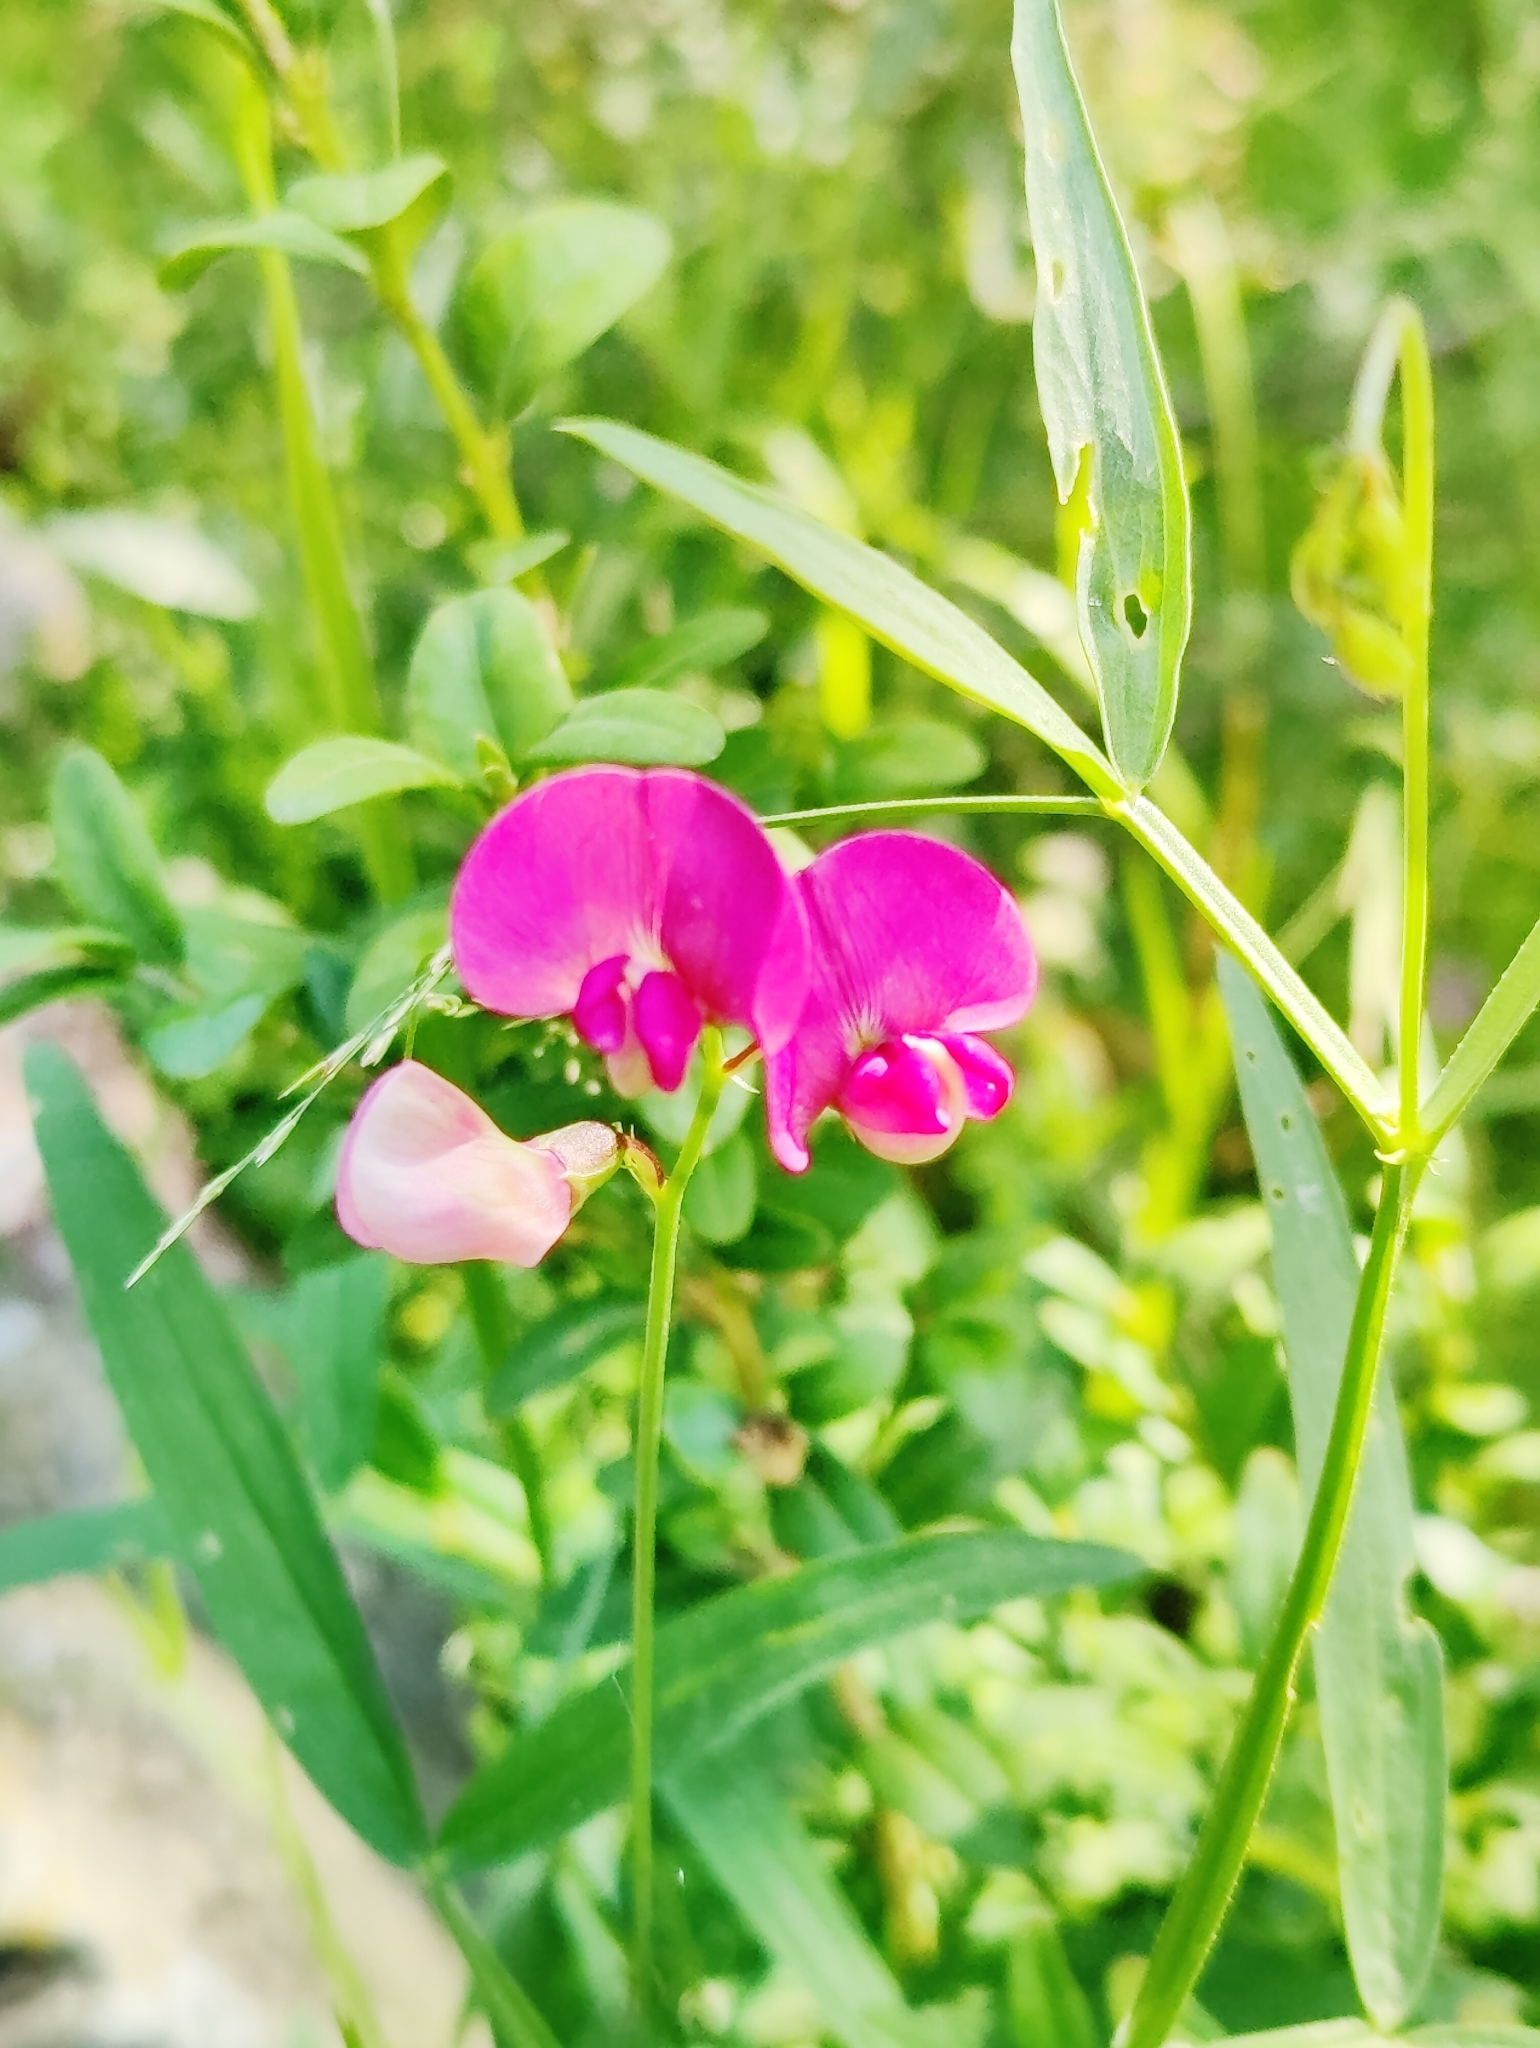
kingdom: Plantae
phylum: Tracheophyta
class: Magnoliopsida
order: Fabales
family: Fabaceae
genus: Lathyrus
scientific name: Lathyrus sylvestris
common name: Flat pea
